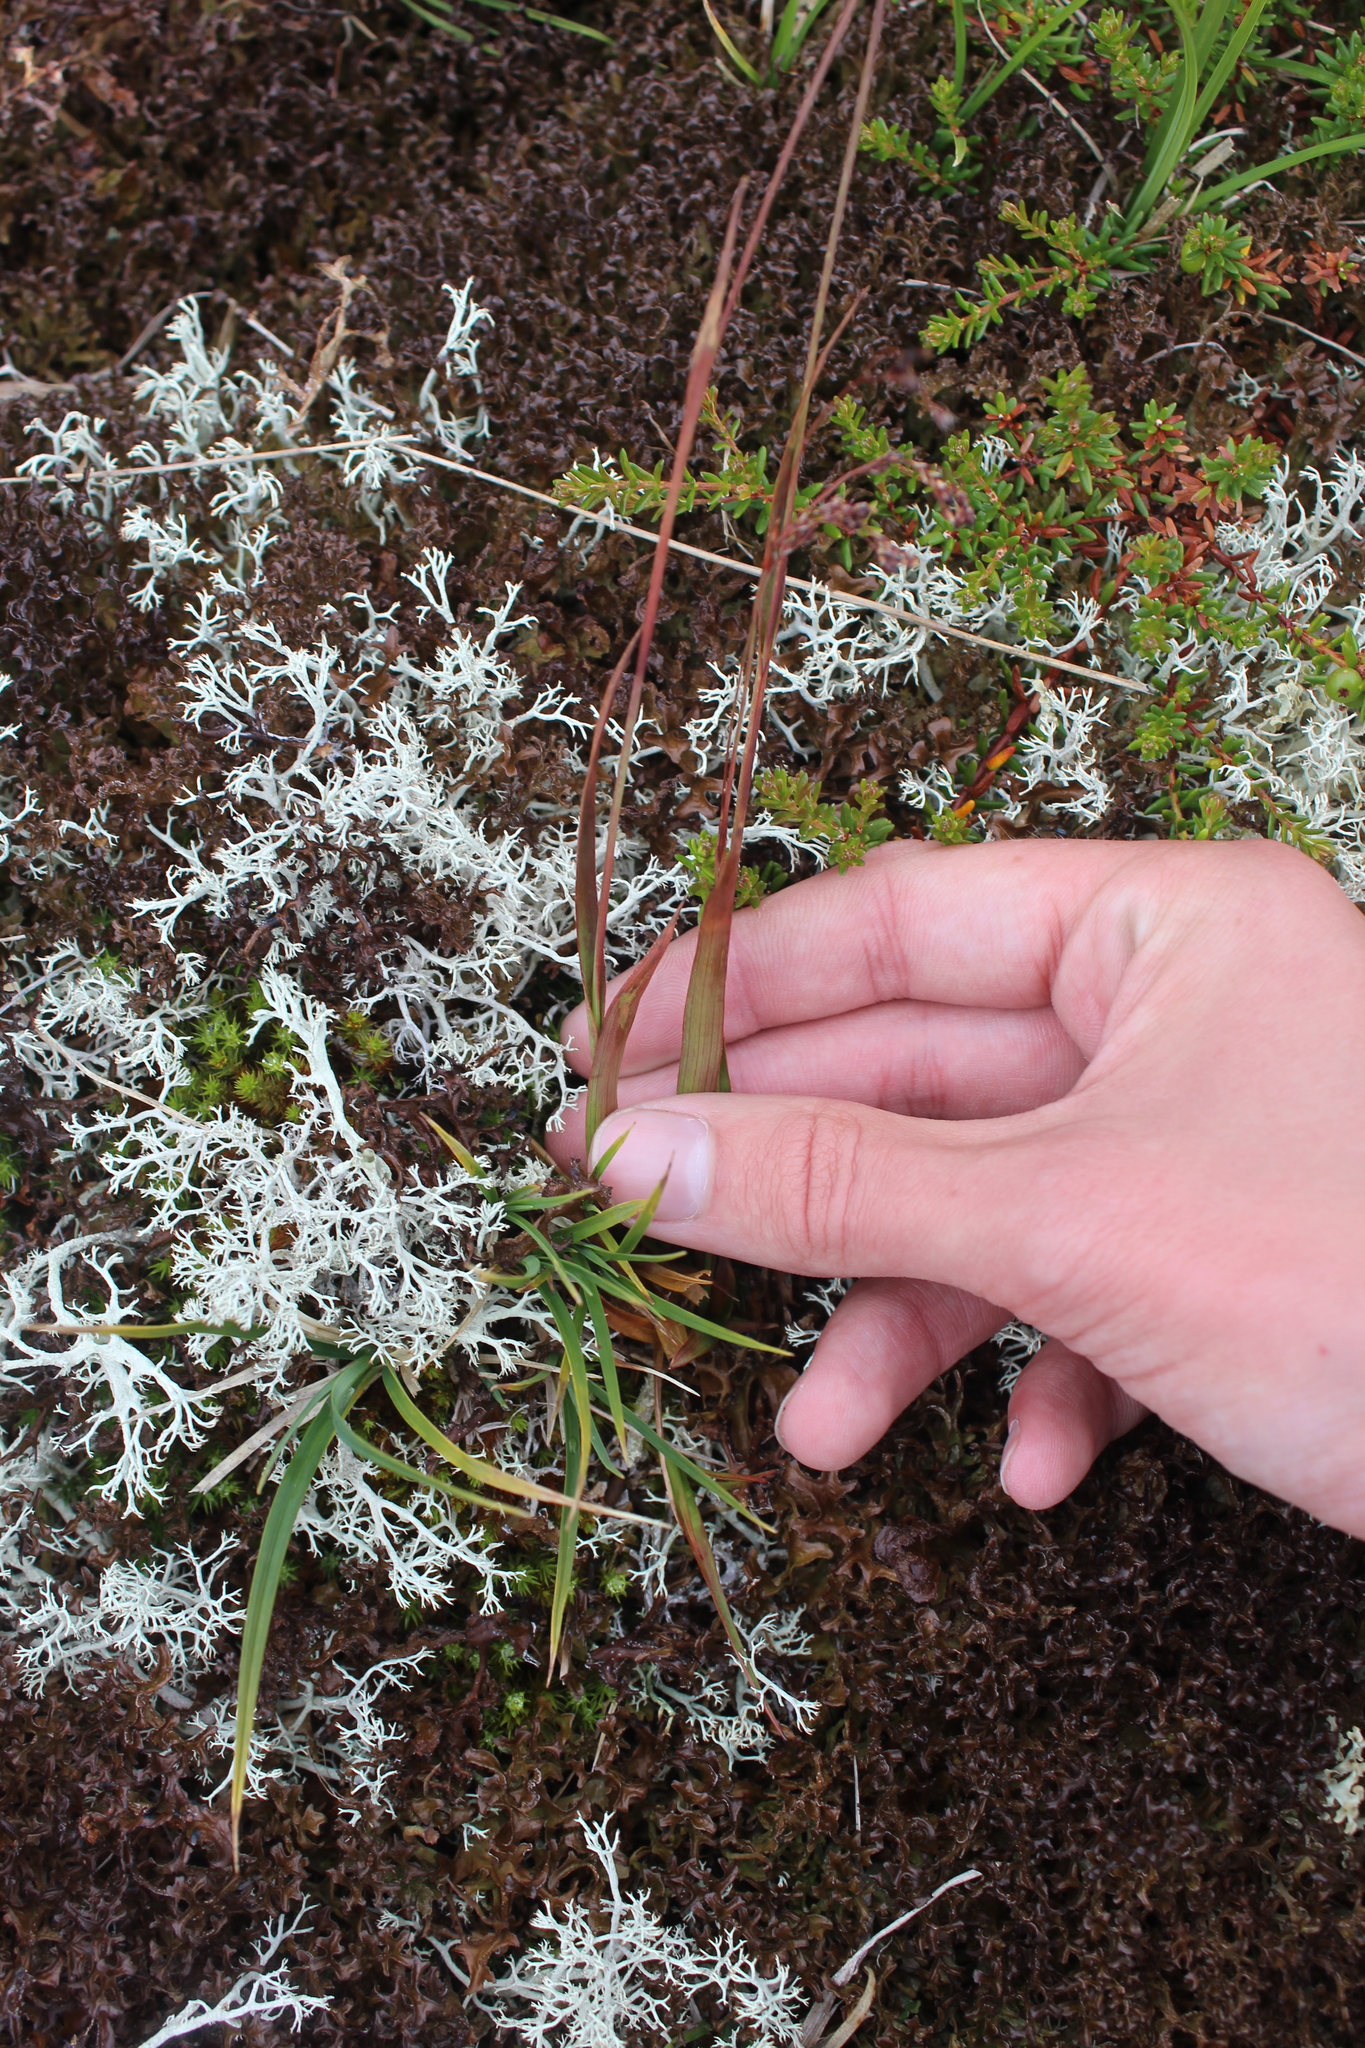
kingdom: Plantae
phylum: Tracheophyta
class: Liliopsida
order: Poales
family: Juncaceae
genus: Luzula
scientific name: Luzula parviflora
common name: Millet woodrush
